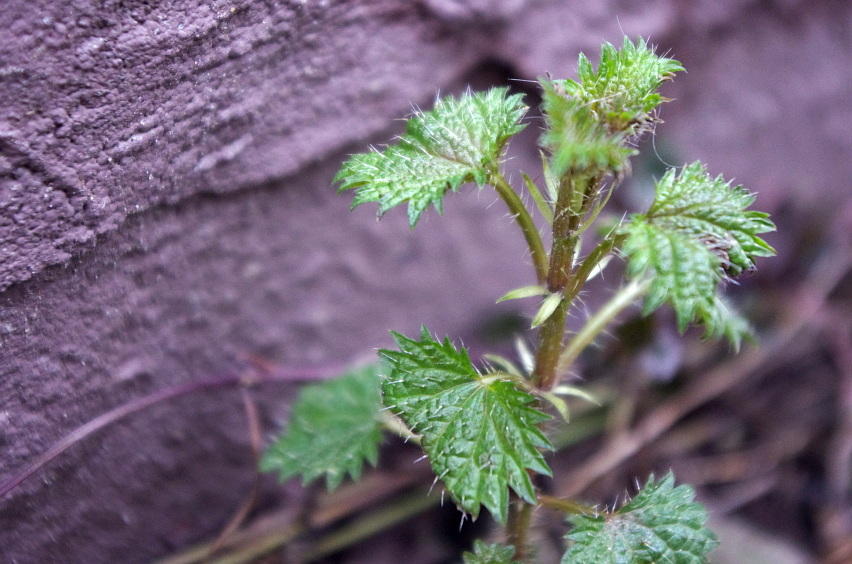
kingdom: Plantae
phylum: Tracheophyta
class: Magnoliopsida
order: Rosales
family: Urticaceae
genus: Urtica
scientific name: Urtica dioica
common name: Common nettle
